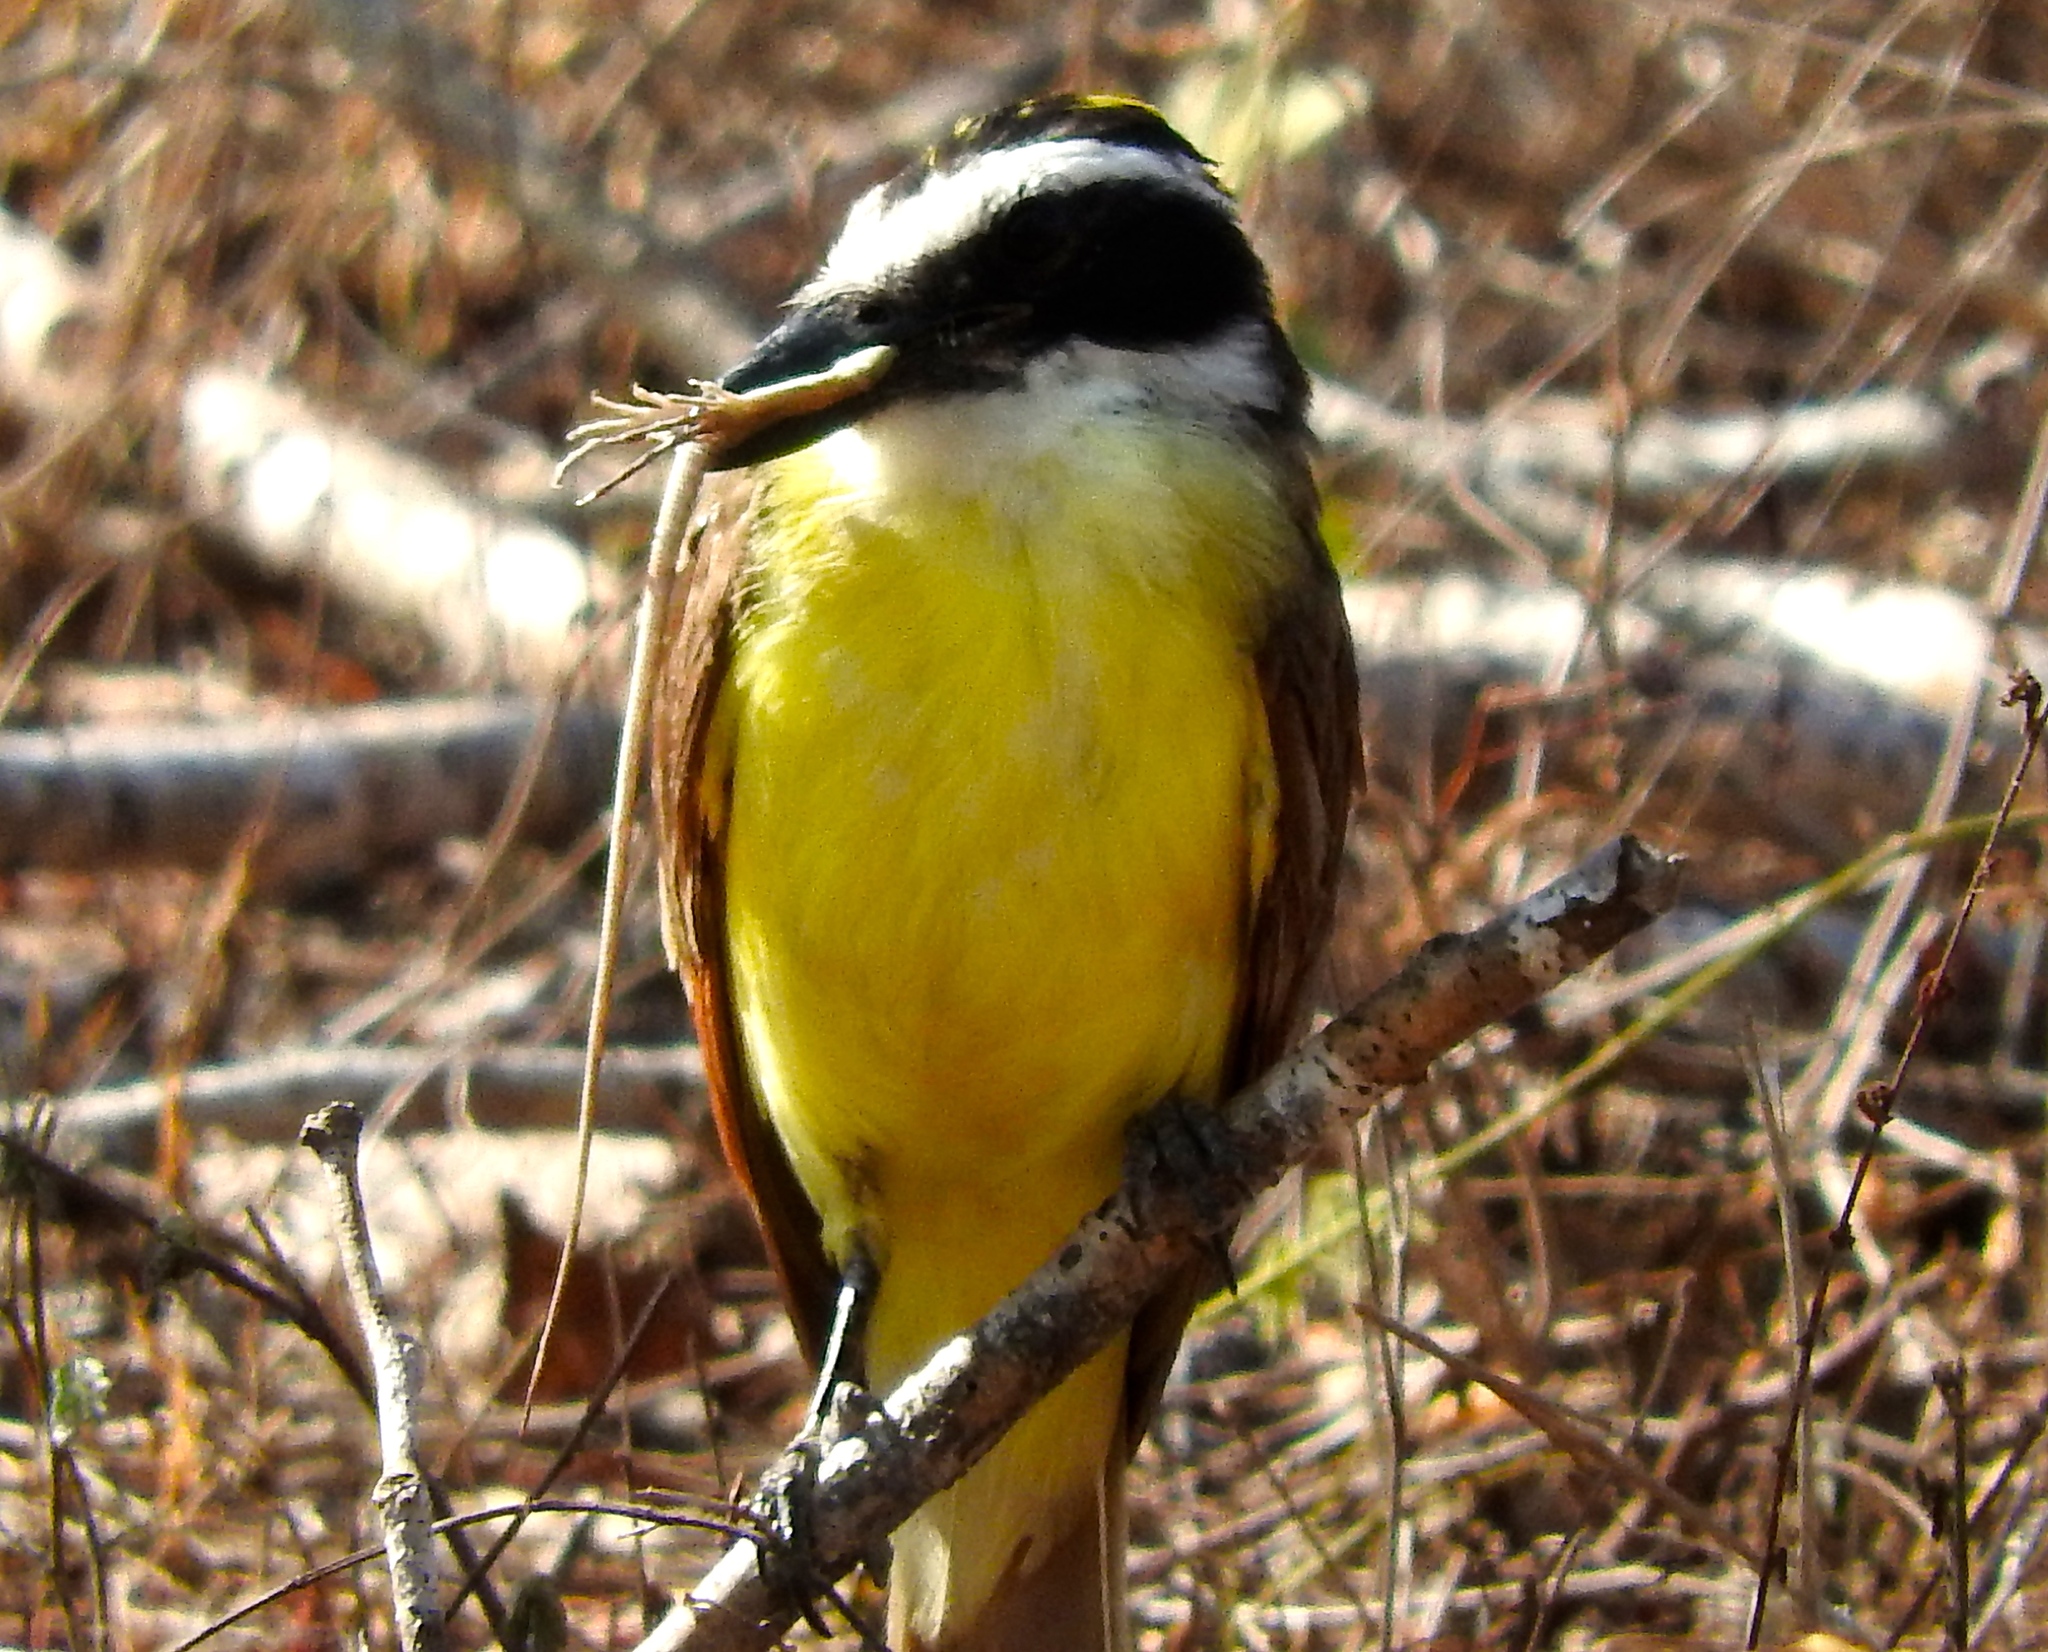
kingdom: Animalia
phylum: Chordata
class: Aves
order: Passeriformes
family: Tyrannidae
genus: Pitangus
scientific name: Pitangus sulphuratus
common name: Great kiskadee
